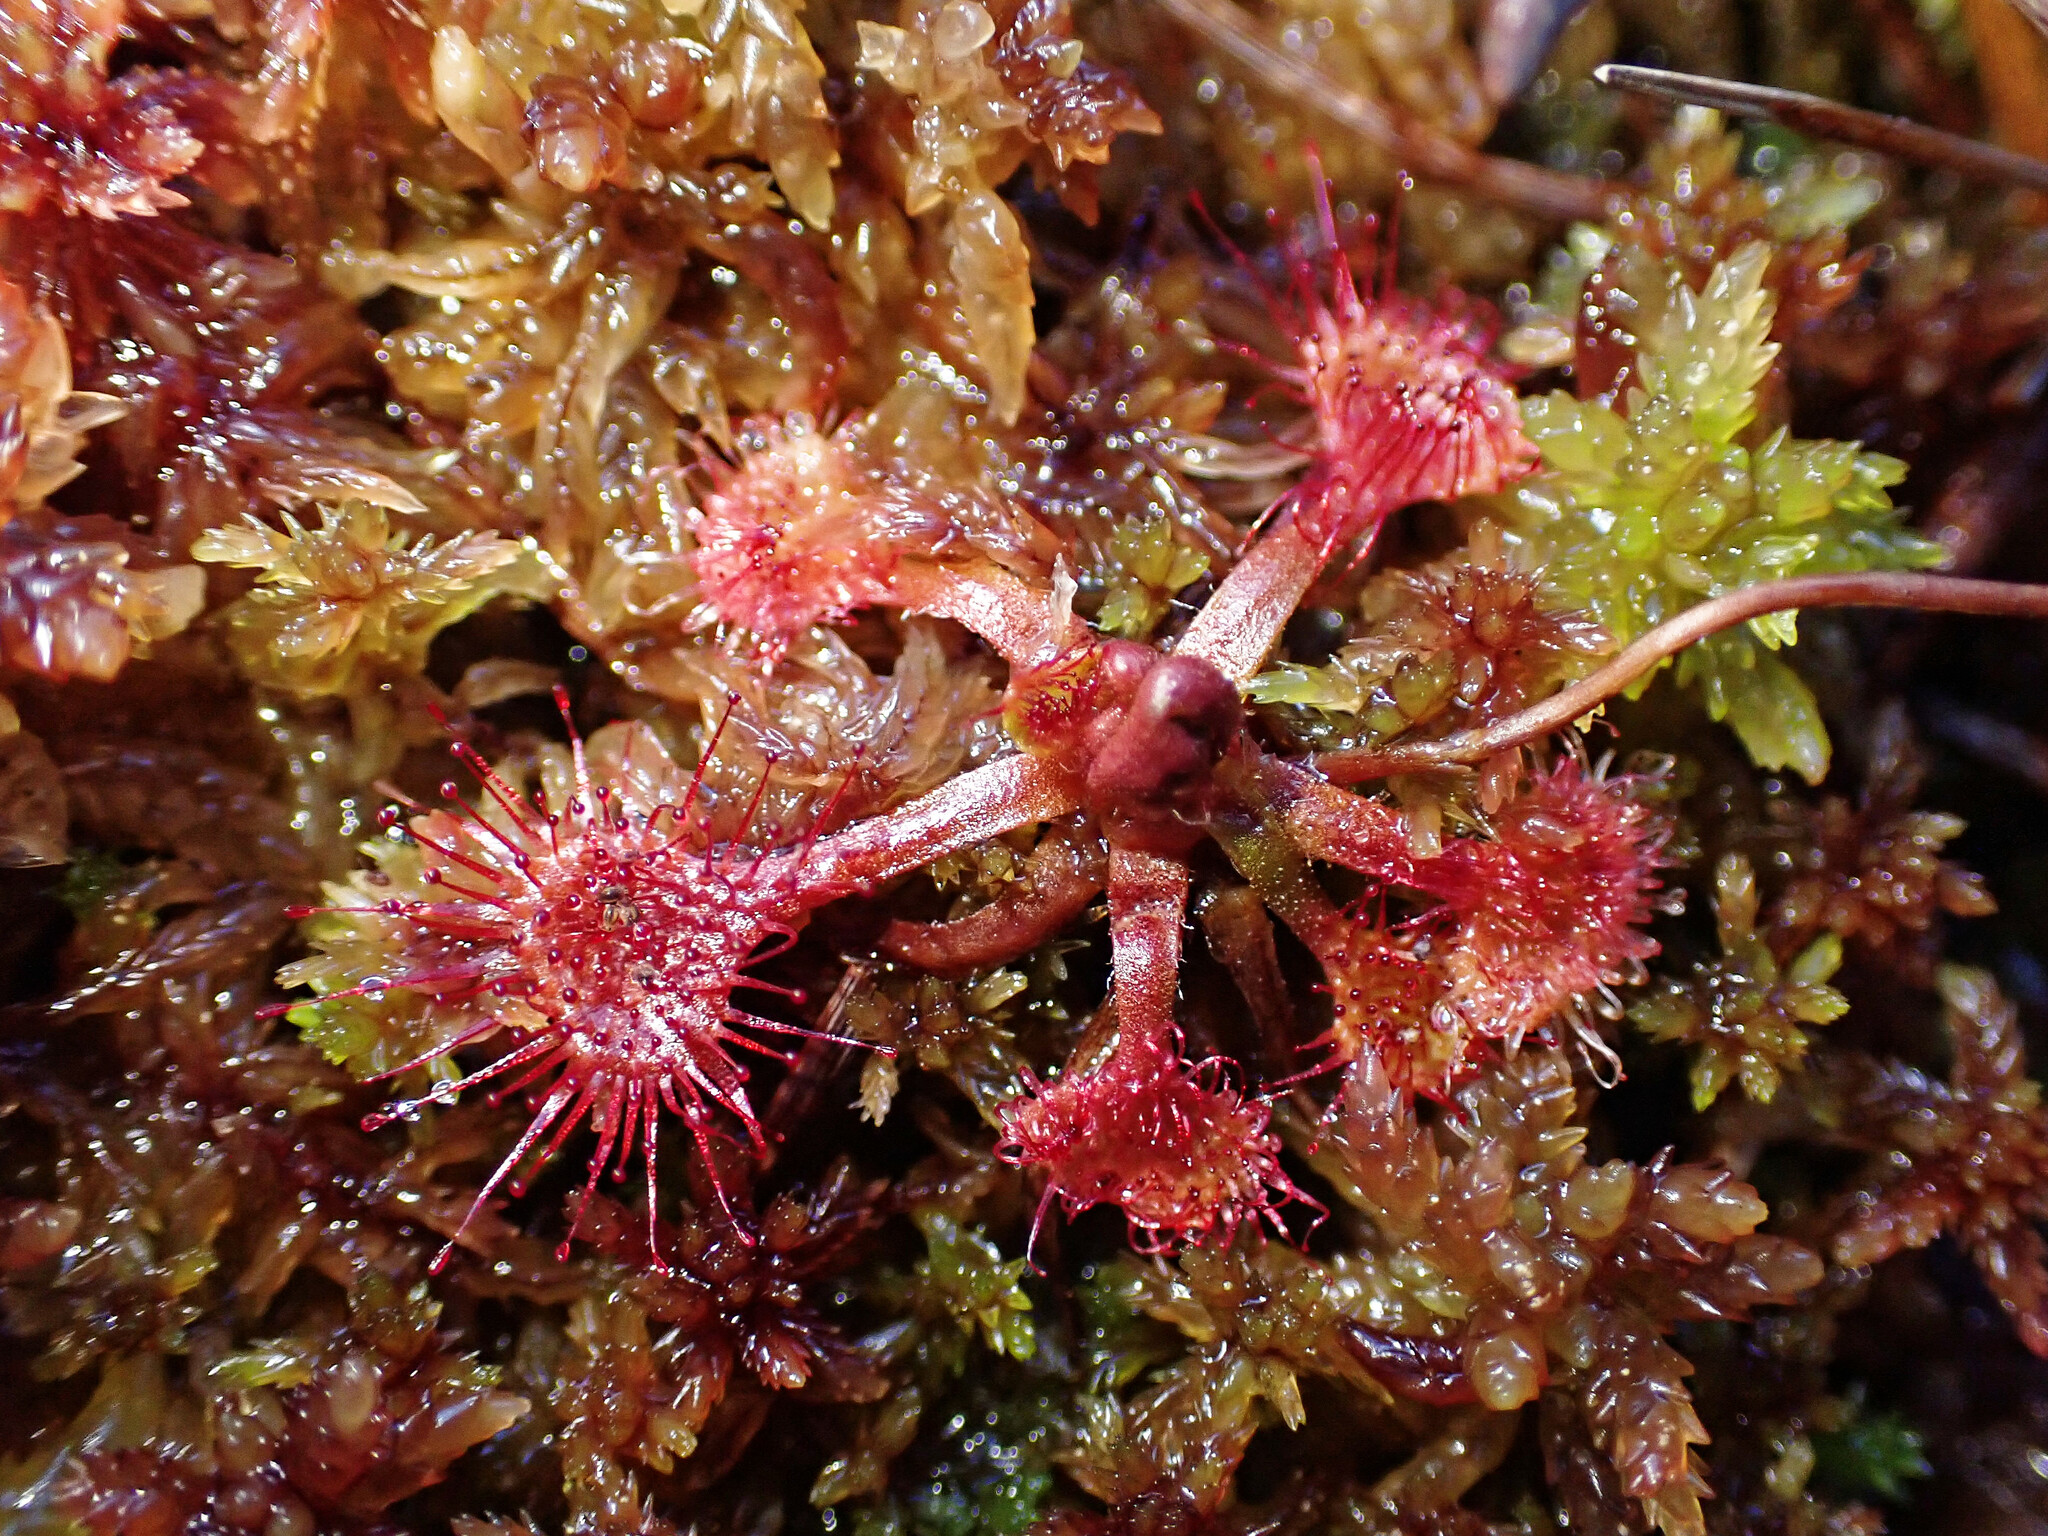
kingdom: Plantae
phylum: Tracheophyta
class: Magnoliopsida
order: Caryophyllales
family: Droseraceae
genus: Drosera
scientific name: Drosera rotundifolia
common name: Round-leaved sundew
